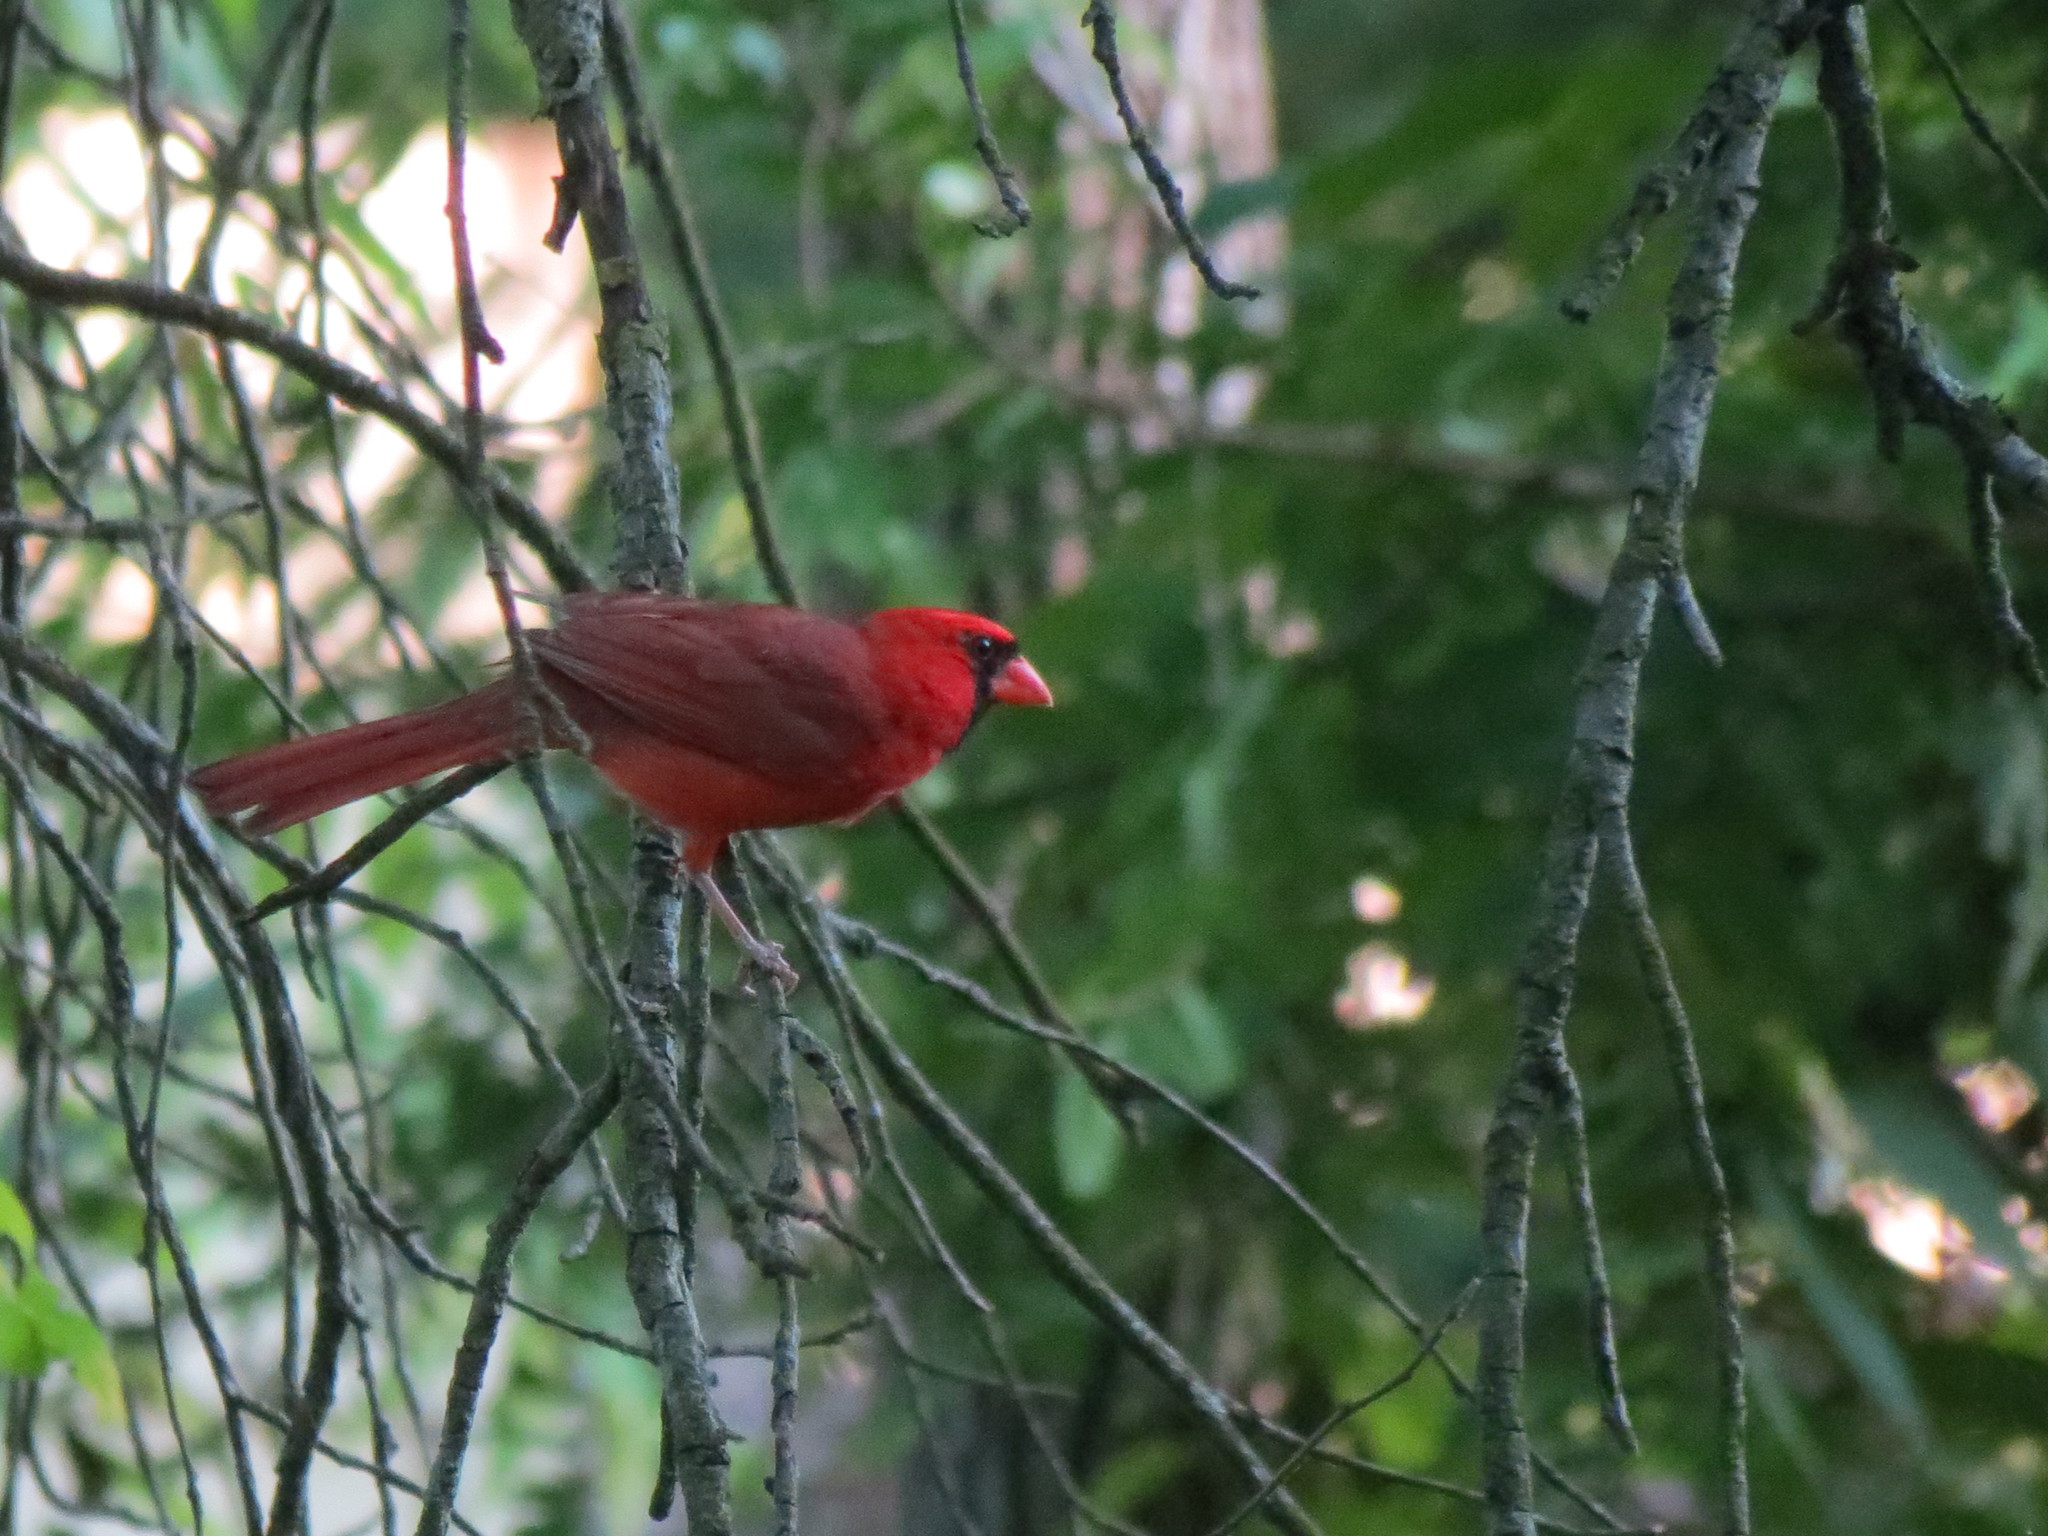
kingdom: Animalia
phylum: Chordata
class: Aves
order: Passeriformes
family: Cardinalidae
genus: Cardinalis
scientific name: Cardinalis cardinalis
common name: Northern cardinal
